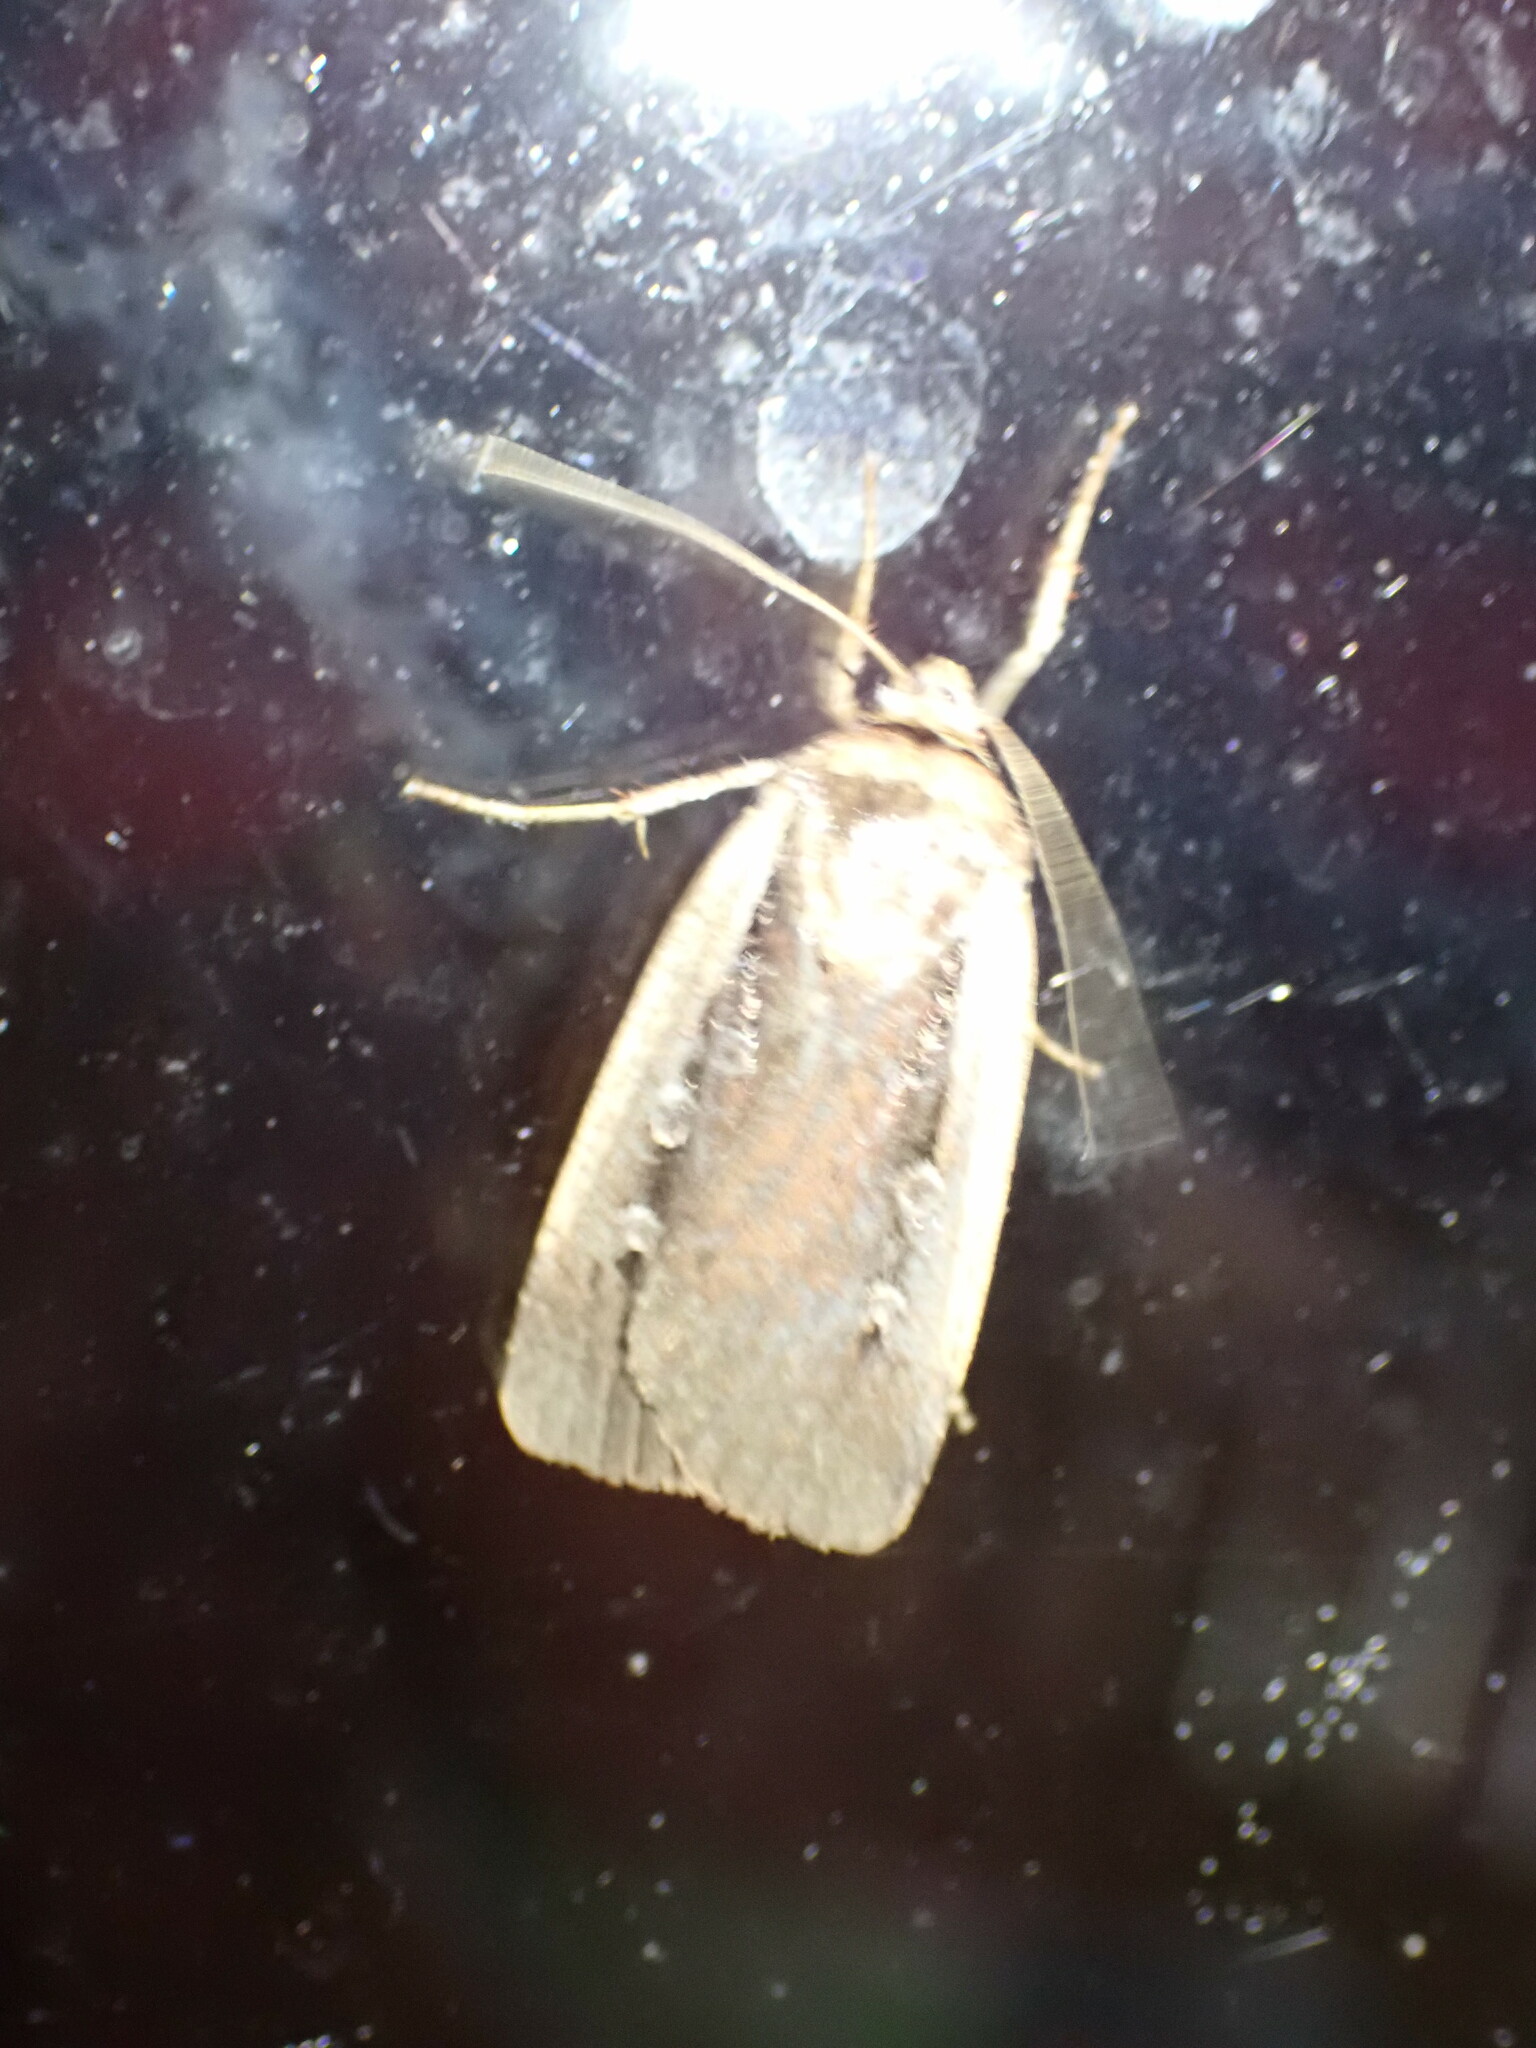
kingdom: Animalia
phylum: Arthropoda
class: Insecta
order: Lepidoptera
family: Noctuidae
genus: Ochropleura
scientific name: Ochropleura implecta
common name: Flame-shouldered dart
